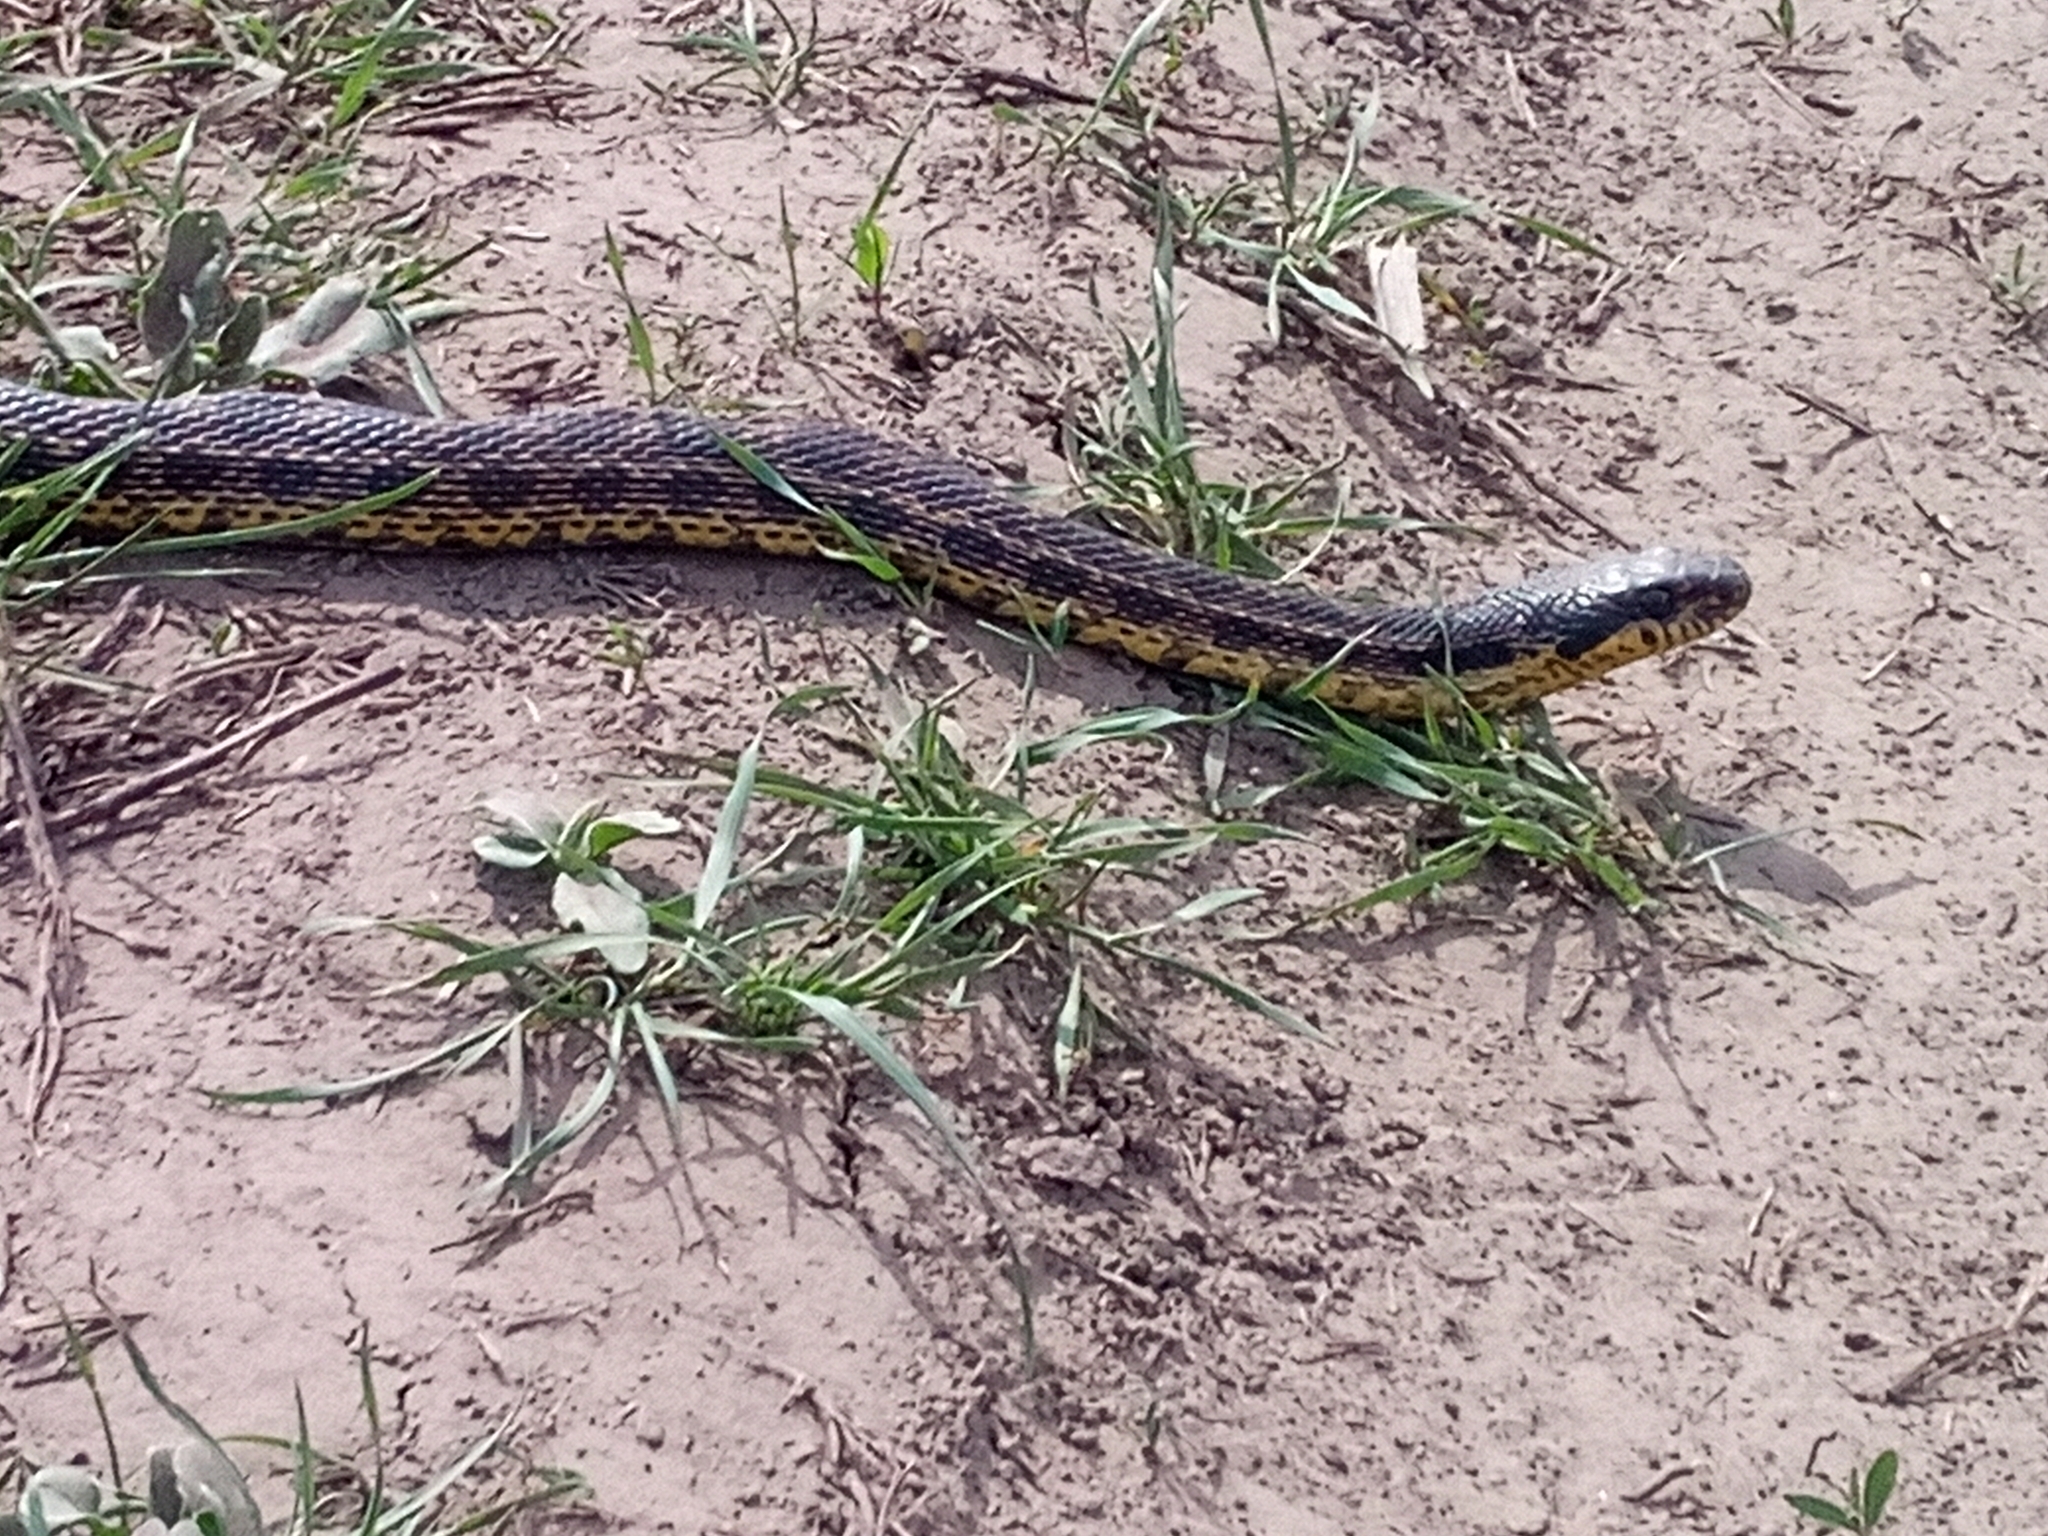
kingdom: Animalia
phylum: Chordata
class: Squamata
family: Colubridae
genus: Elaphe
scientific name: Elaphe sauromates
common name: Eastern four-lined ratsnake
